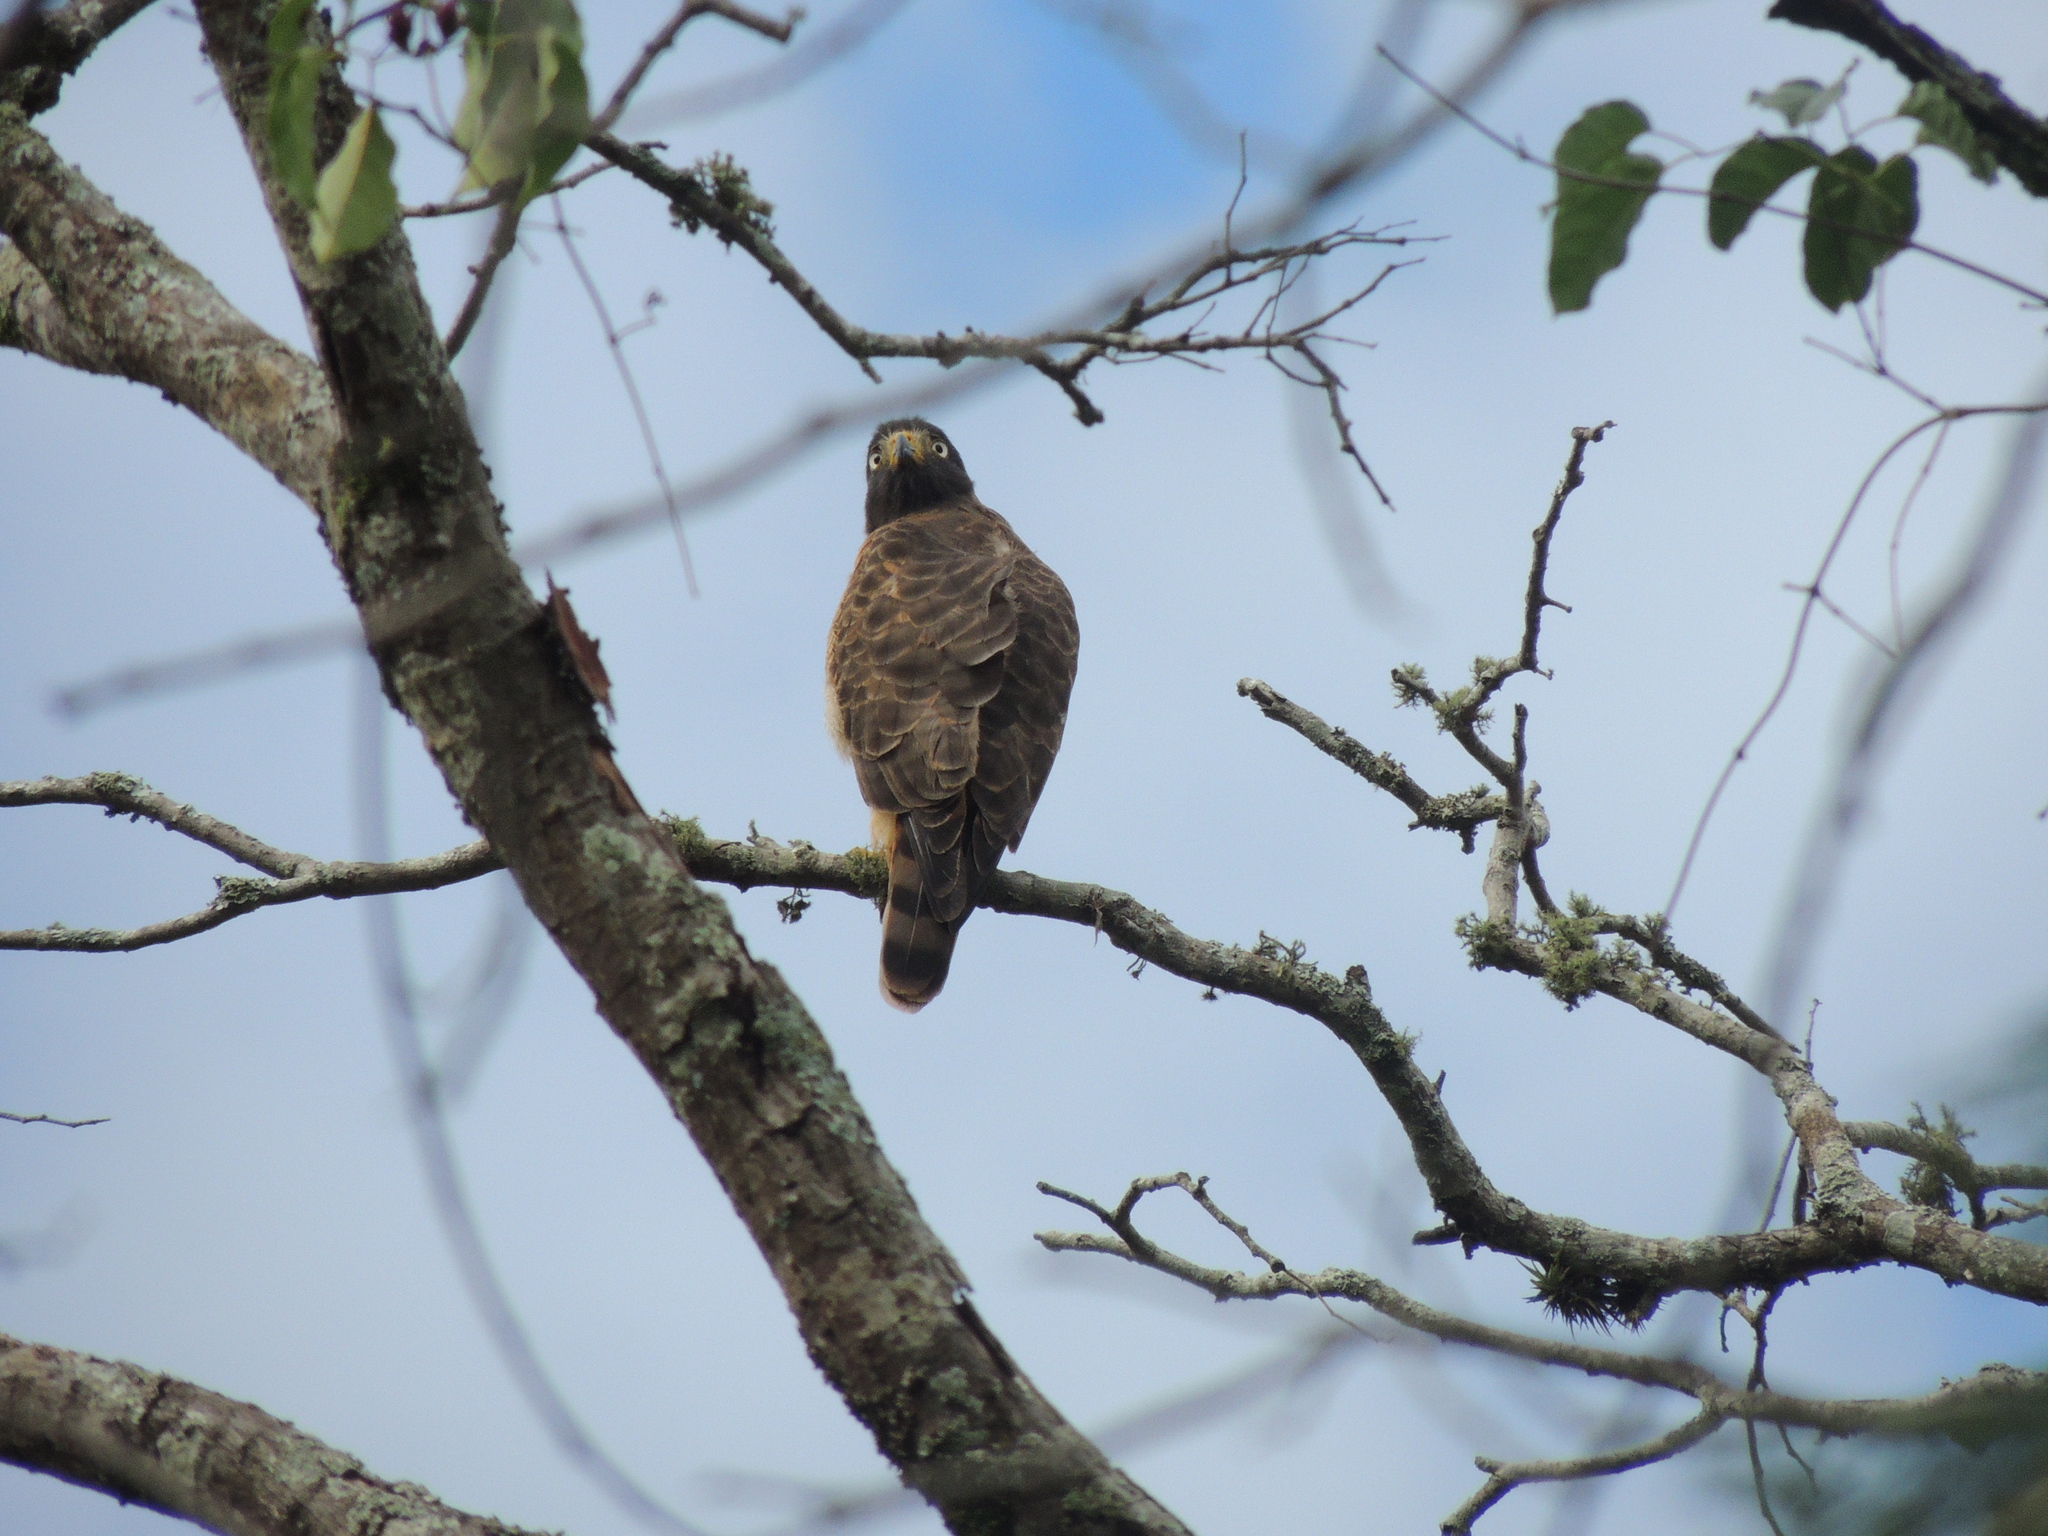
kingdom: Animalia
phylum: Chordata
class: Aves
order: Accipitriformes
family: Accipitridae
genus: Rupornis
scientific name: Rupornis magnirostris
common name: Roadside hawk
